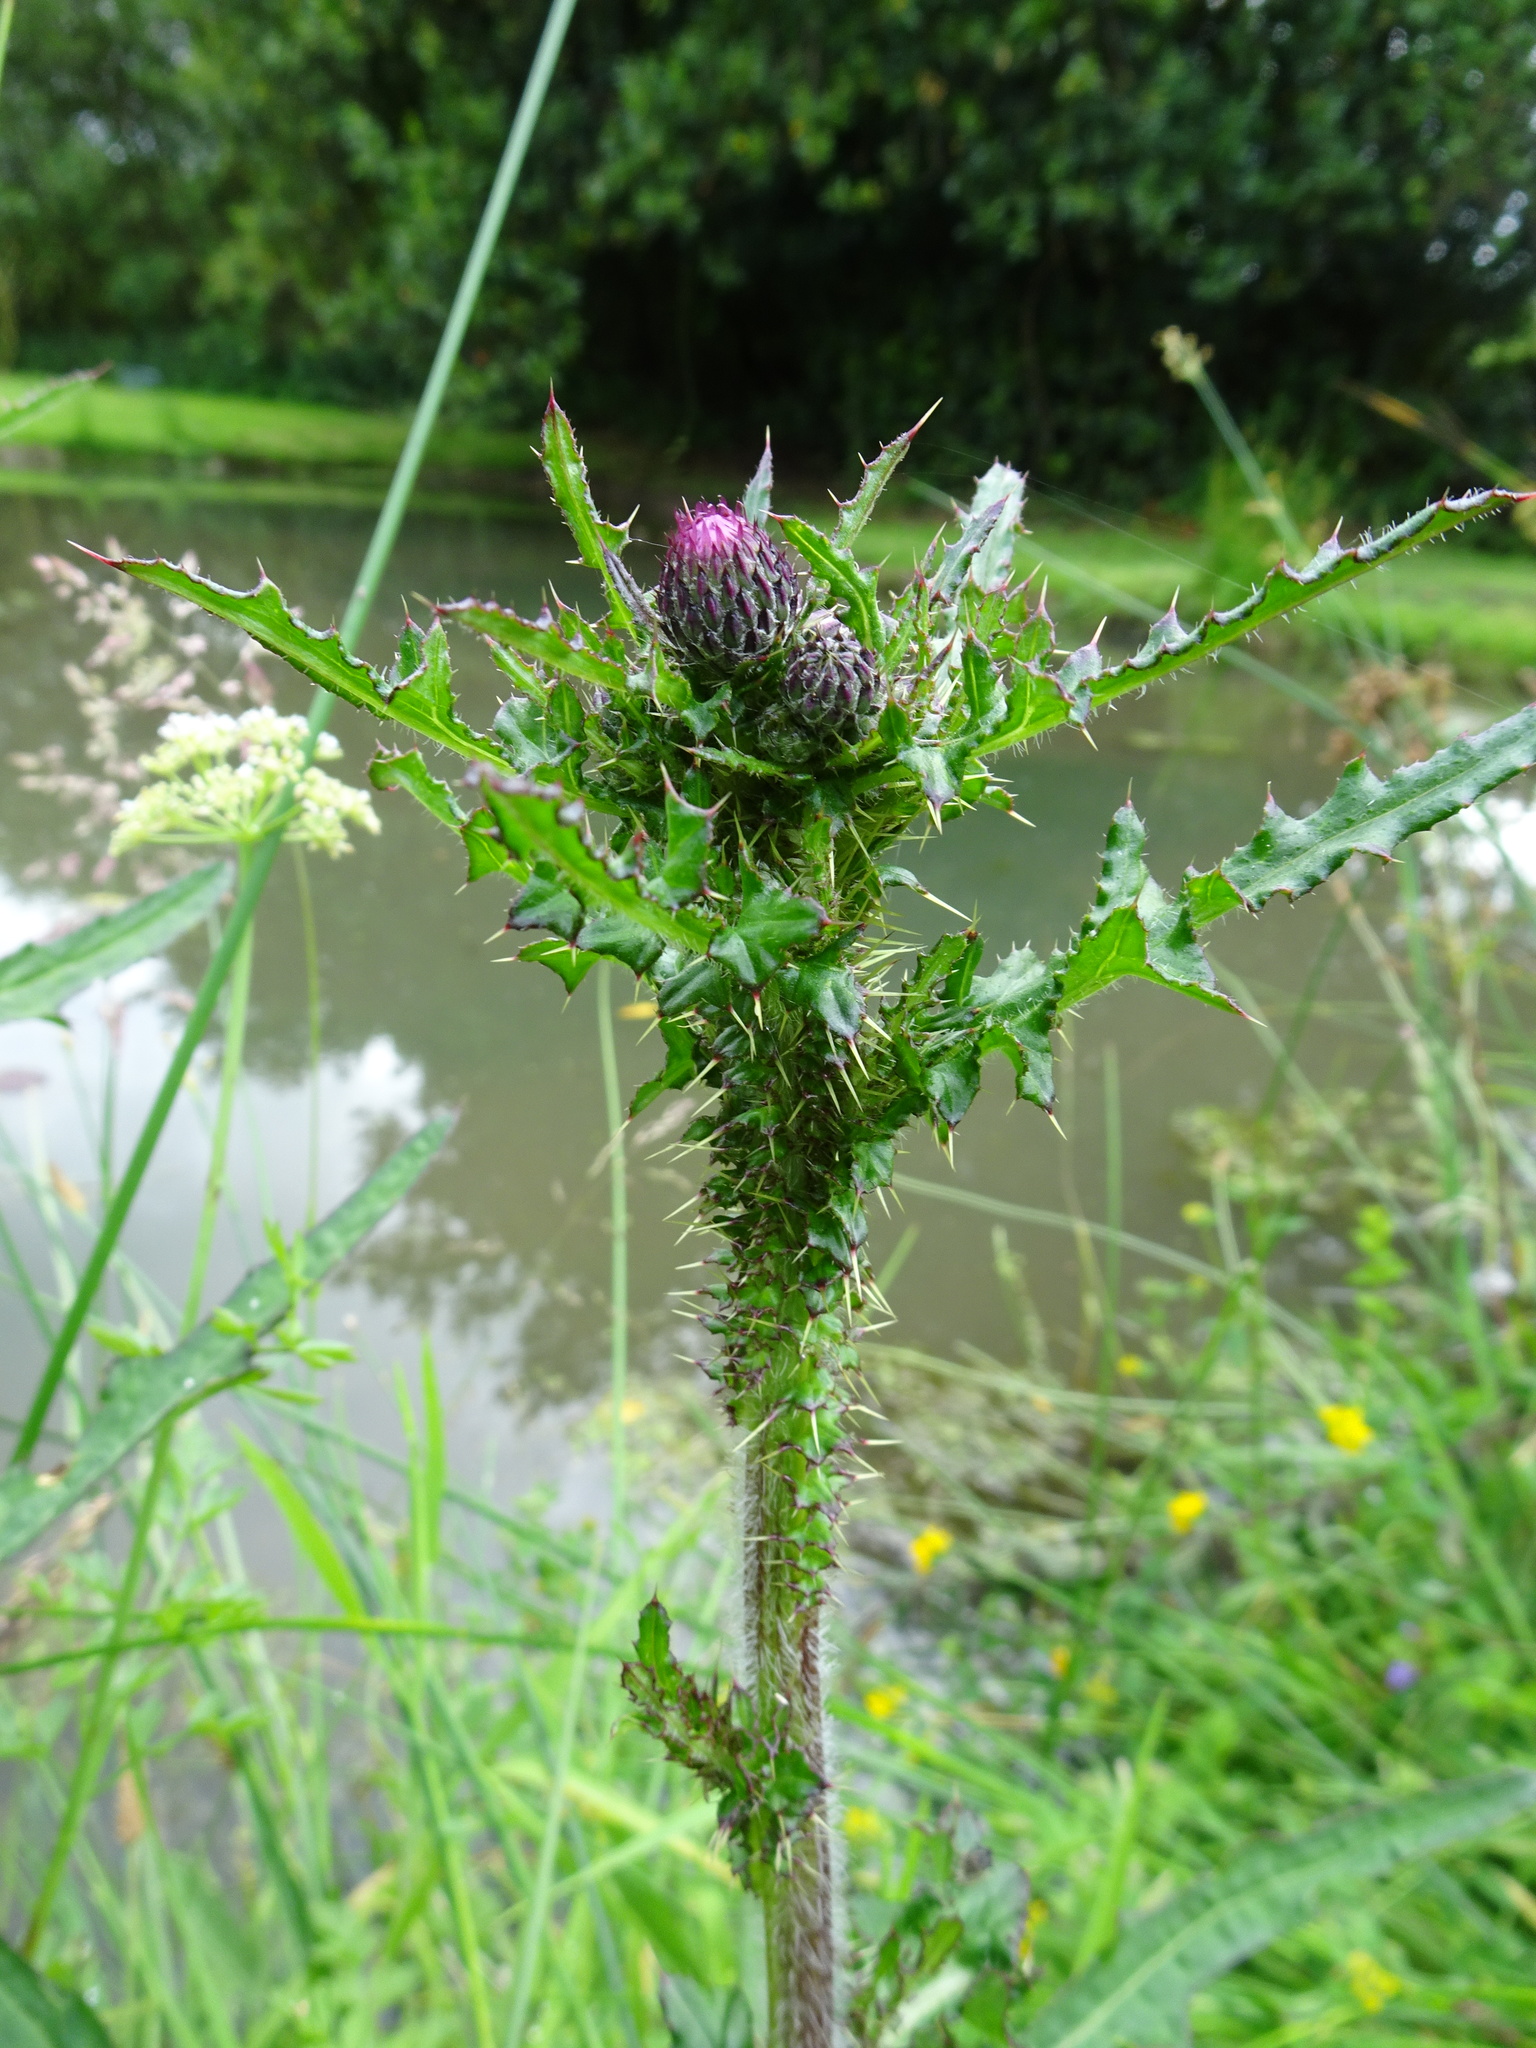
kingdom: Plantae
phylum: Tracheophyta
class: Magnoliopsida
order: Asterales
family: Asteraceae
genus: Cirsium
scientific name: Cirsium palustre
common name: Marsh thistle
